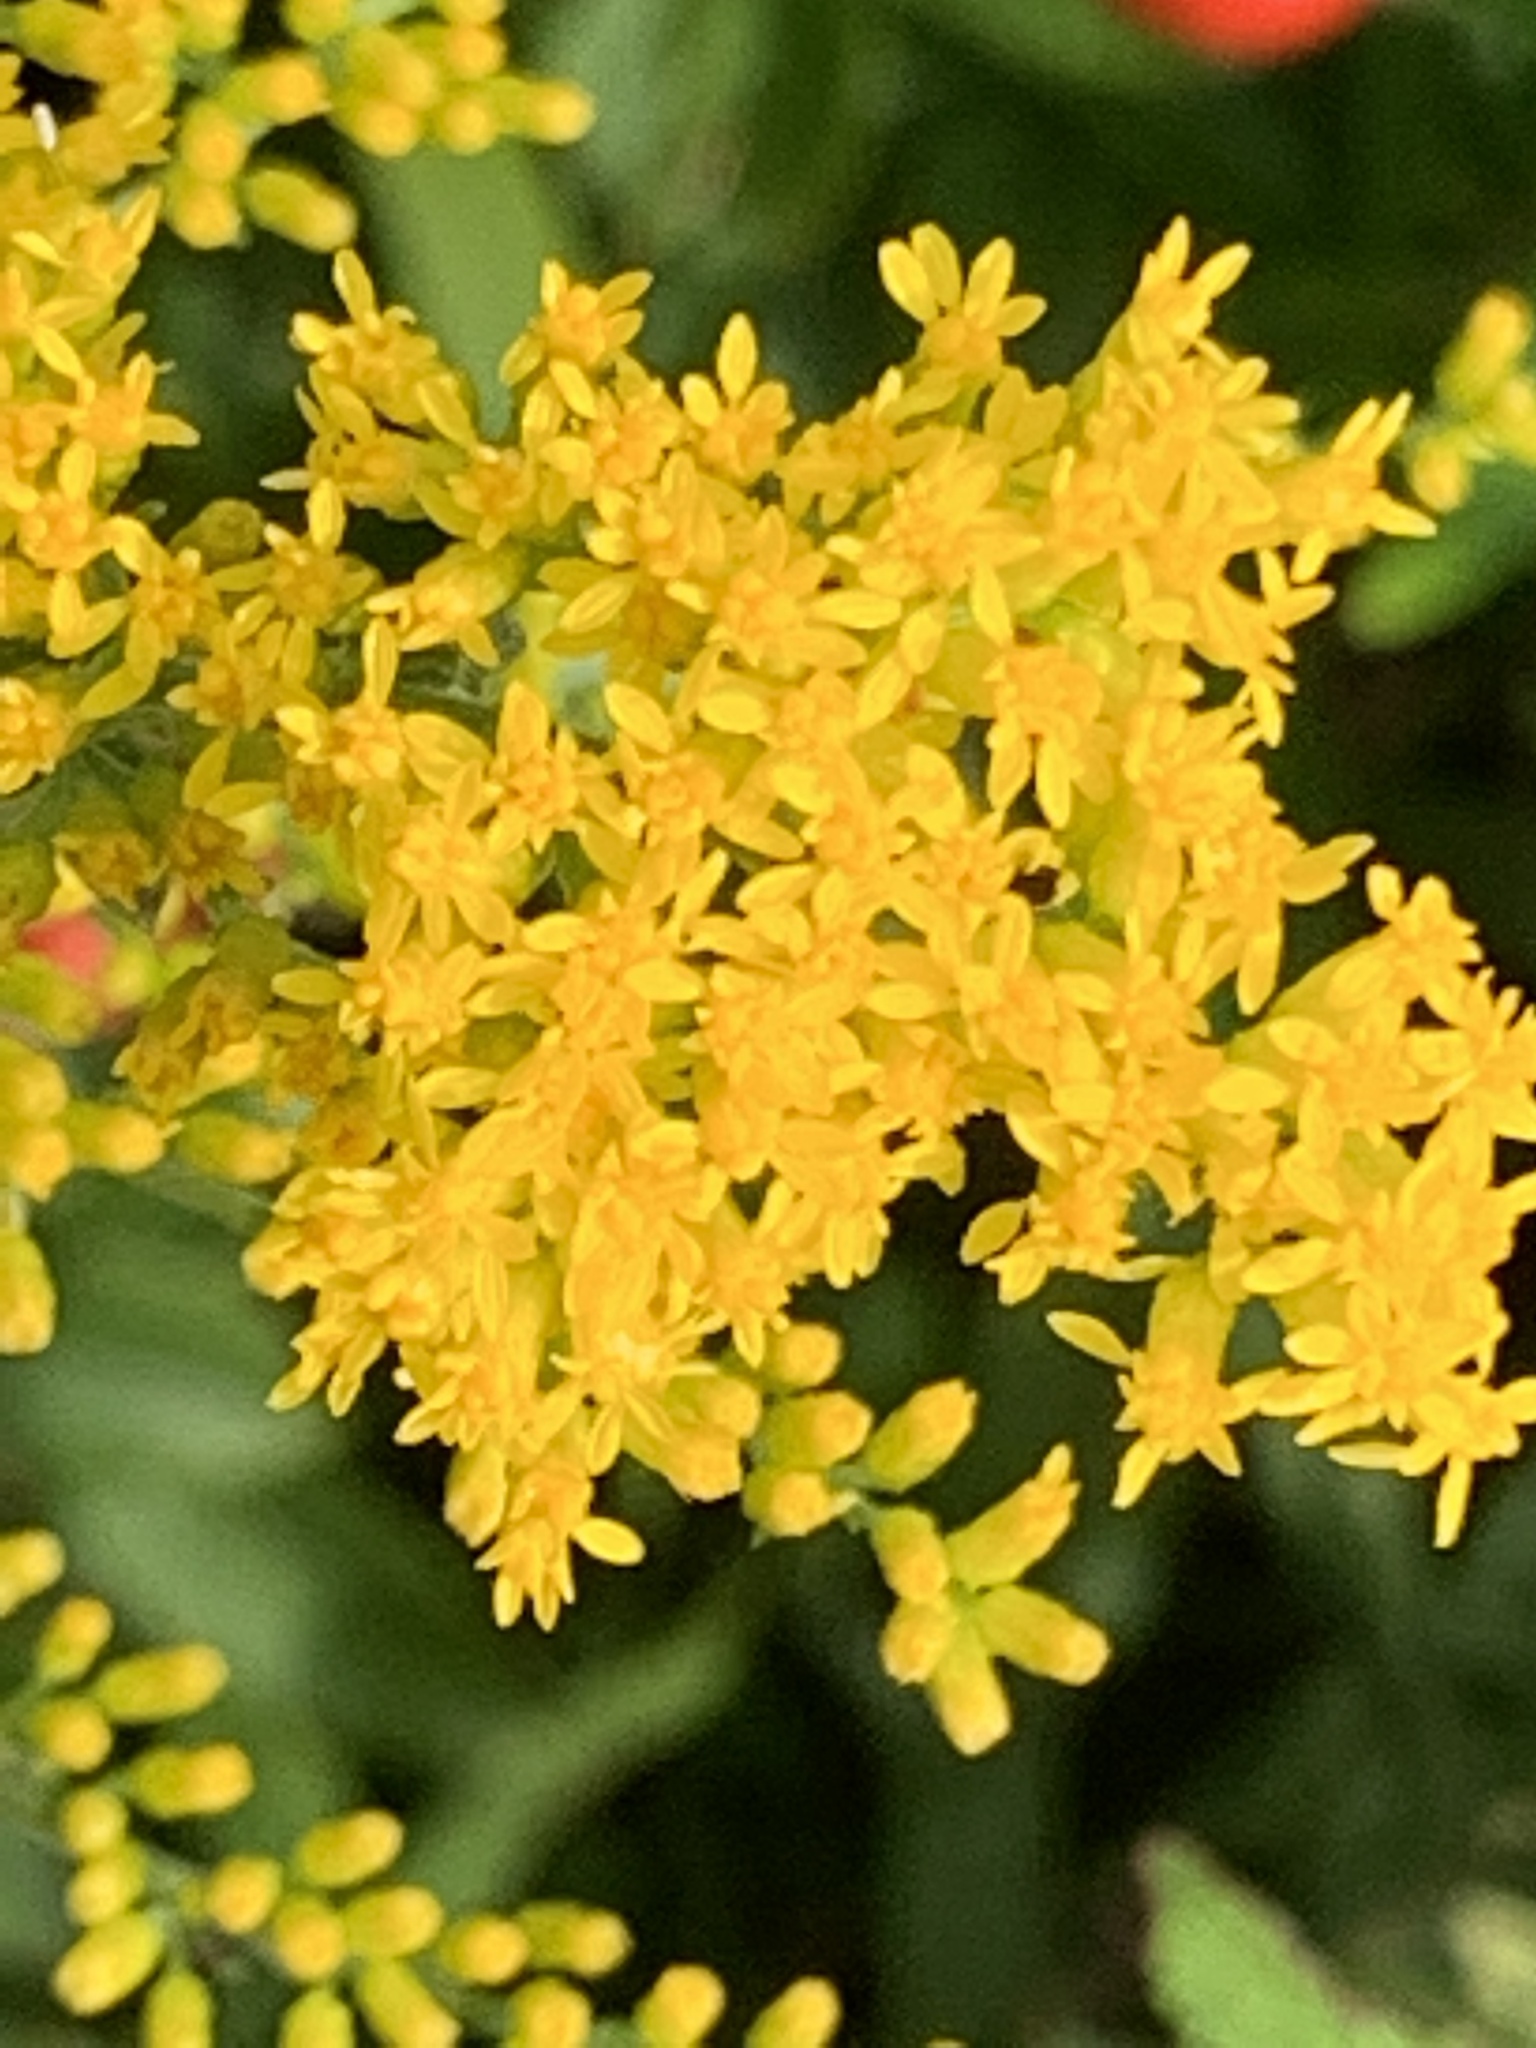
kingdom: Plantae
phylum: Tracheophyta
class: Magnoliopsida
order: Asterales
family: Asteraceae
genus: Solidago
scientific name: Solidago nemoralis
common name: Grey goldenrod
